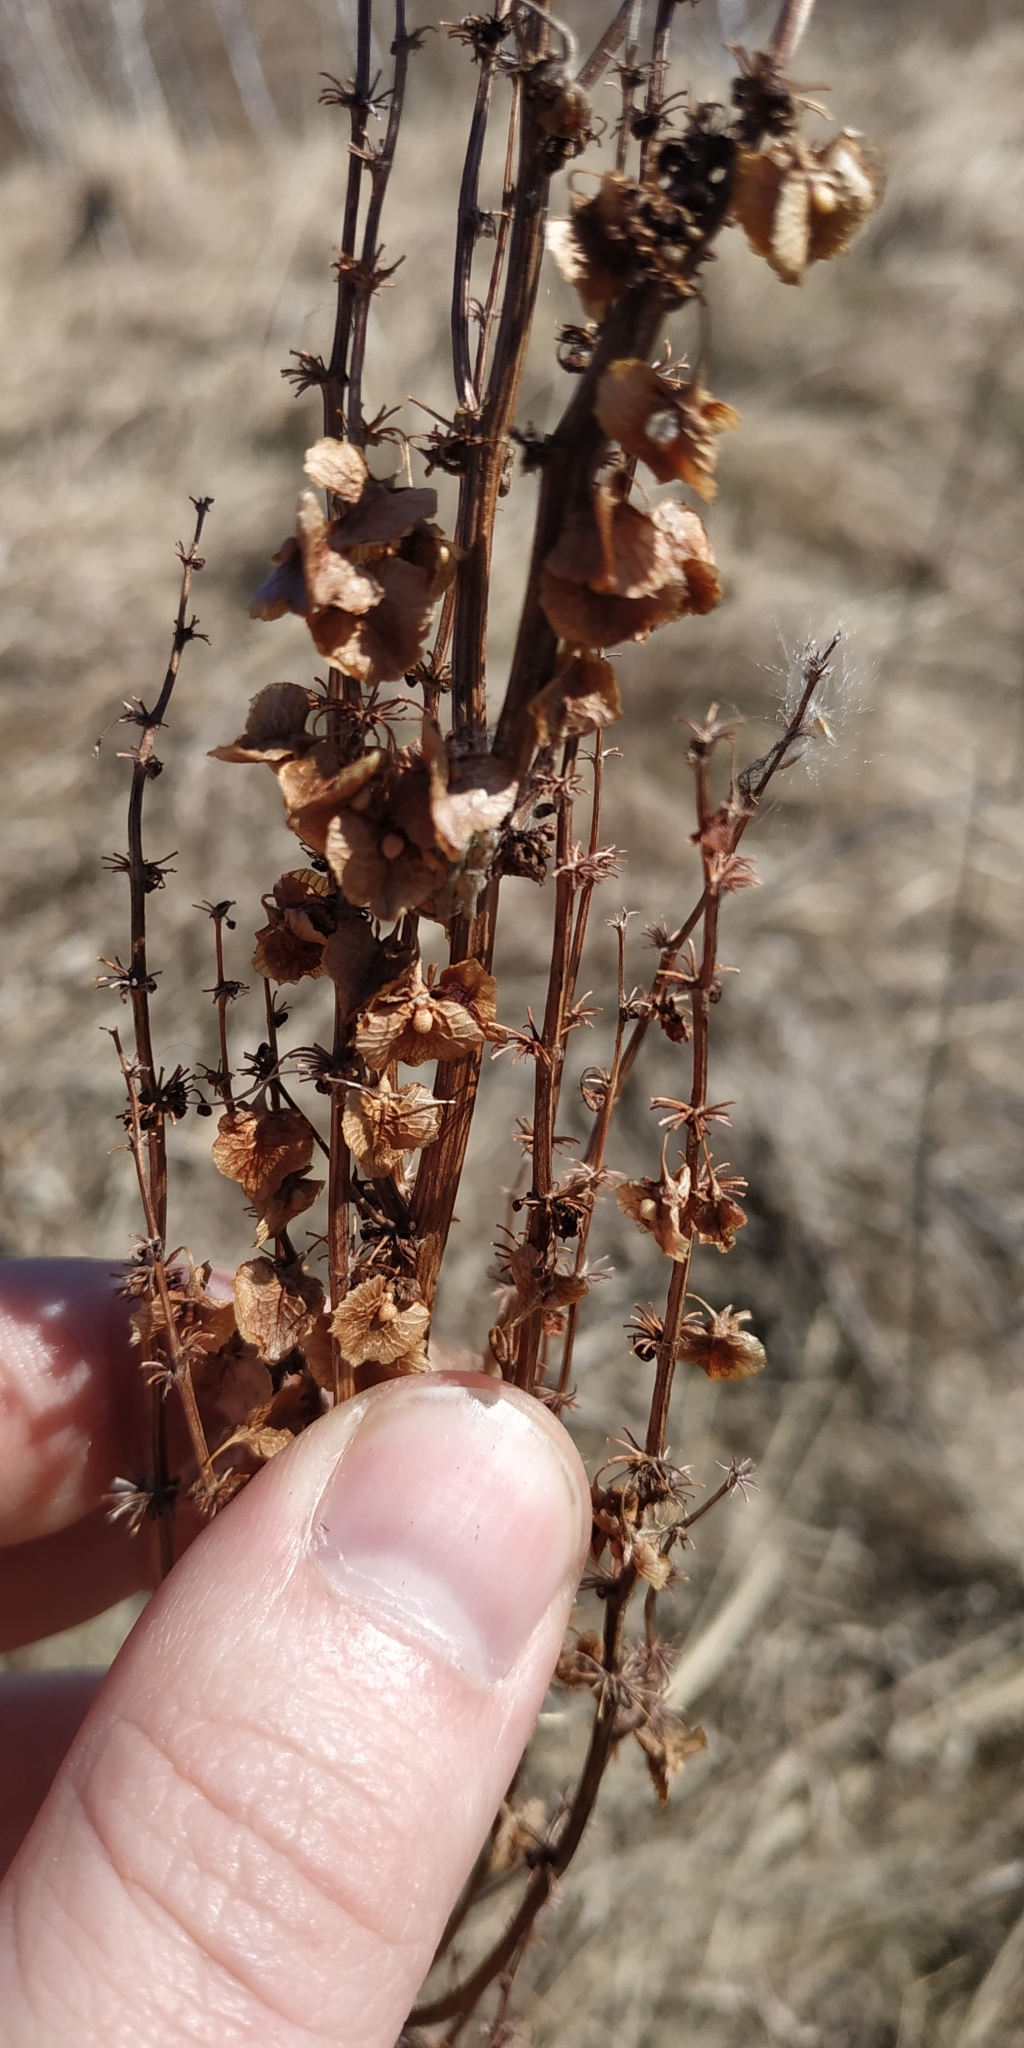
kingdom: Plantae
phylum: Tracheophyta
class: Magnoliopsida
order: Caryophyllales
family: Polygonaceae
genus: Rumex
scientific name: Rumex confertus
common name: Russian dock
